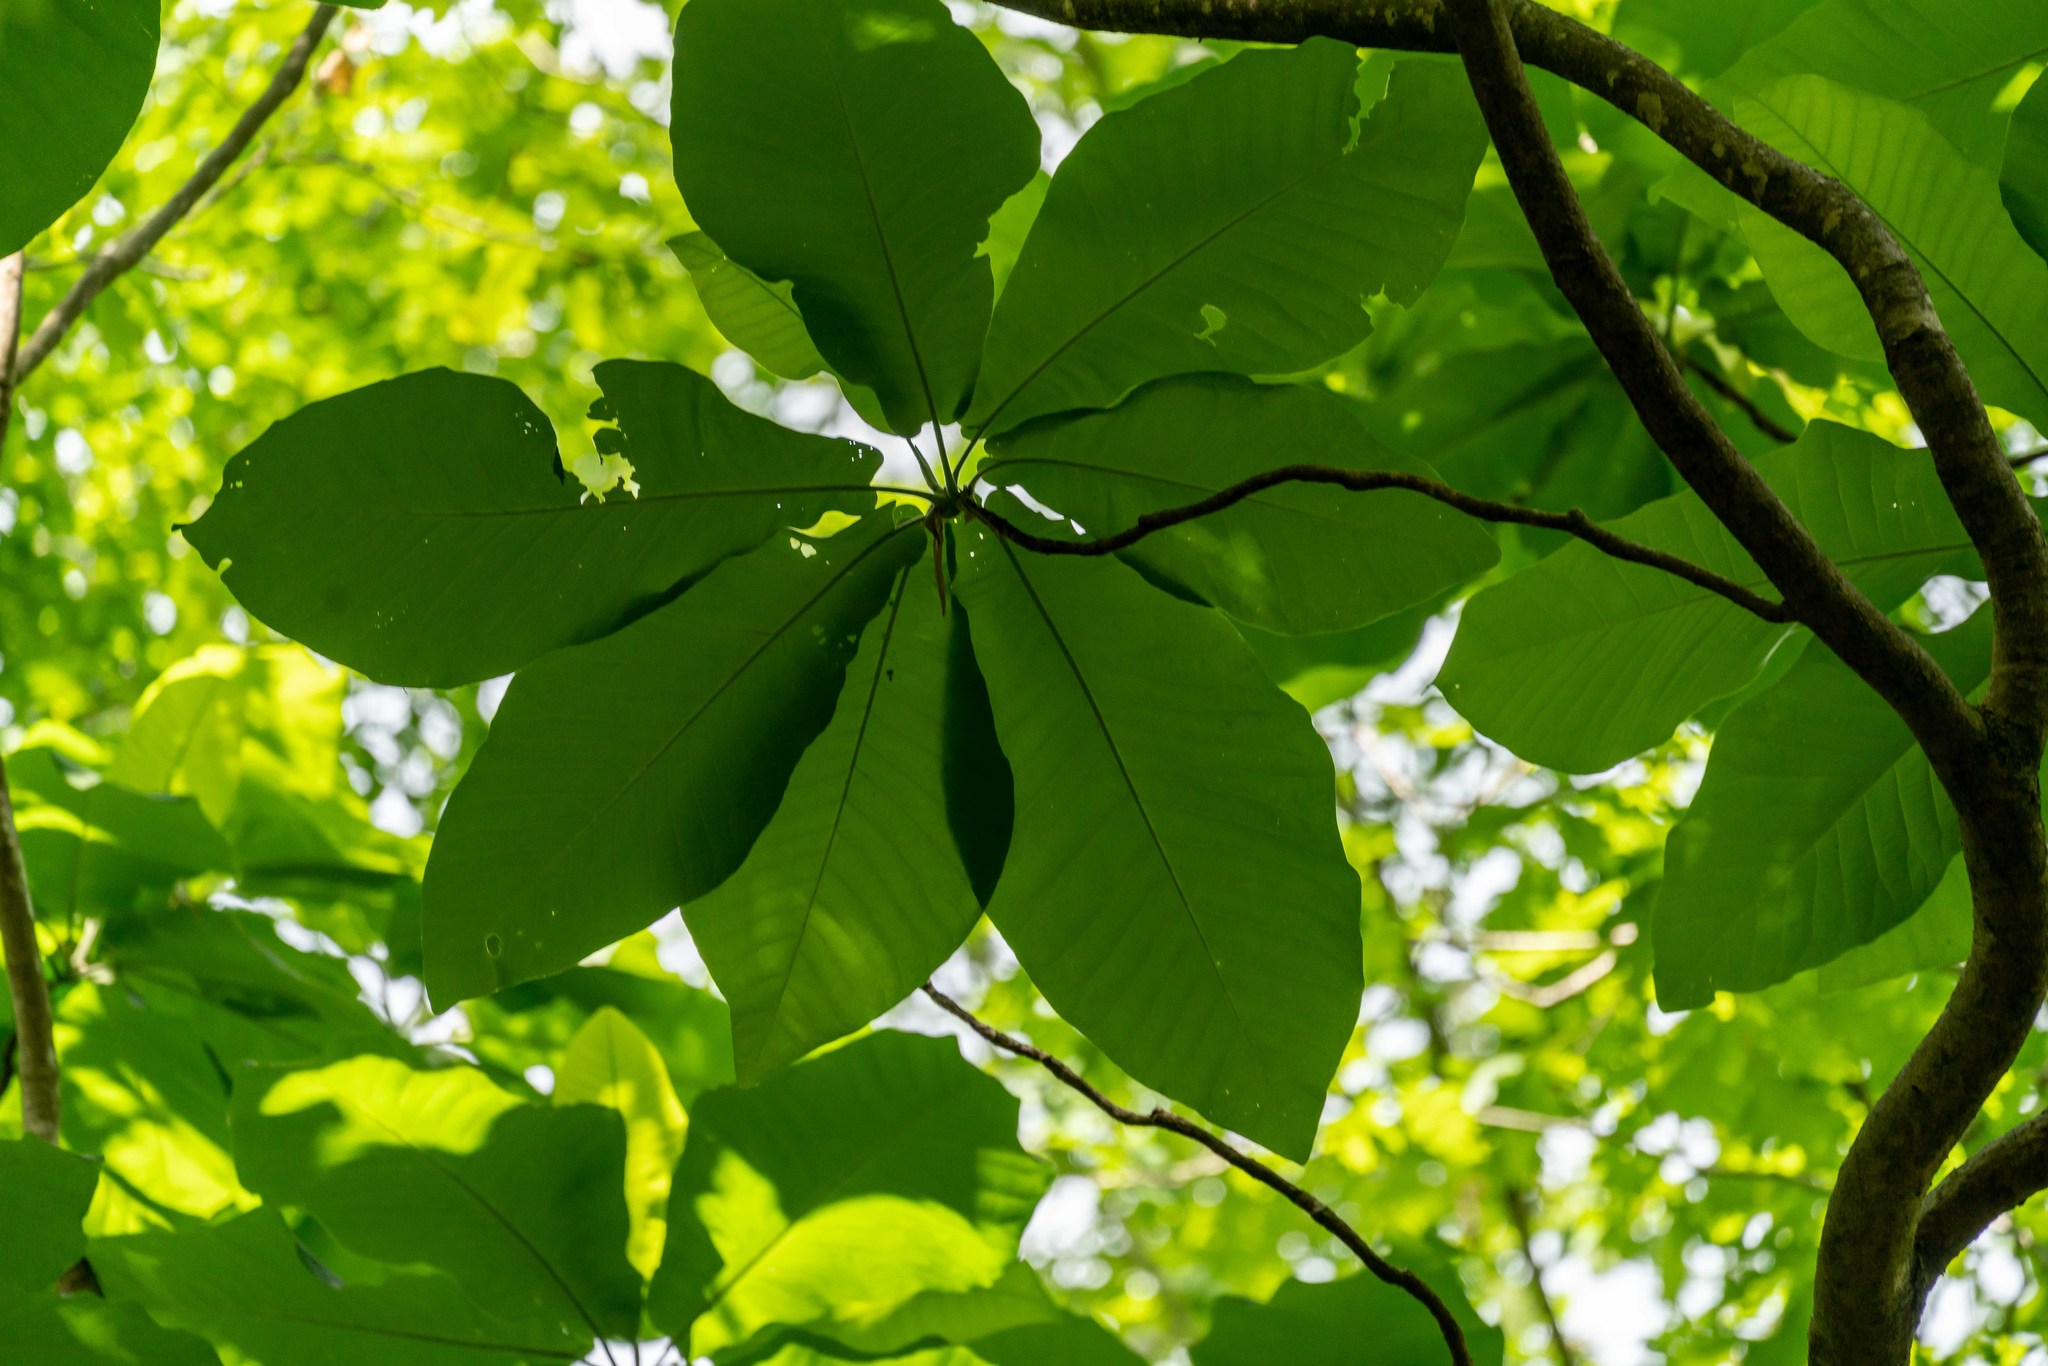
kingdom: Plantae
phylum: Tracheophyta
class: Magnoliopsida
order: Magnoliales
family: Magnoliaceae
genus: Magnolia
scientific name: Magnolia macrophylla
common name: Big-leaf magnolia
